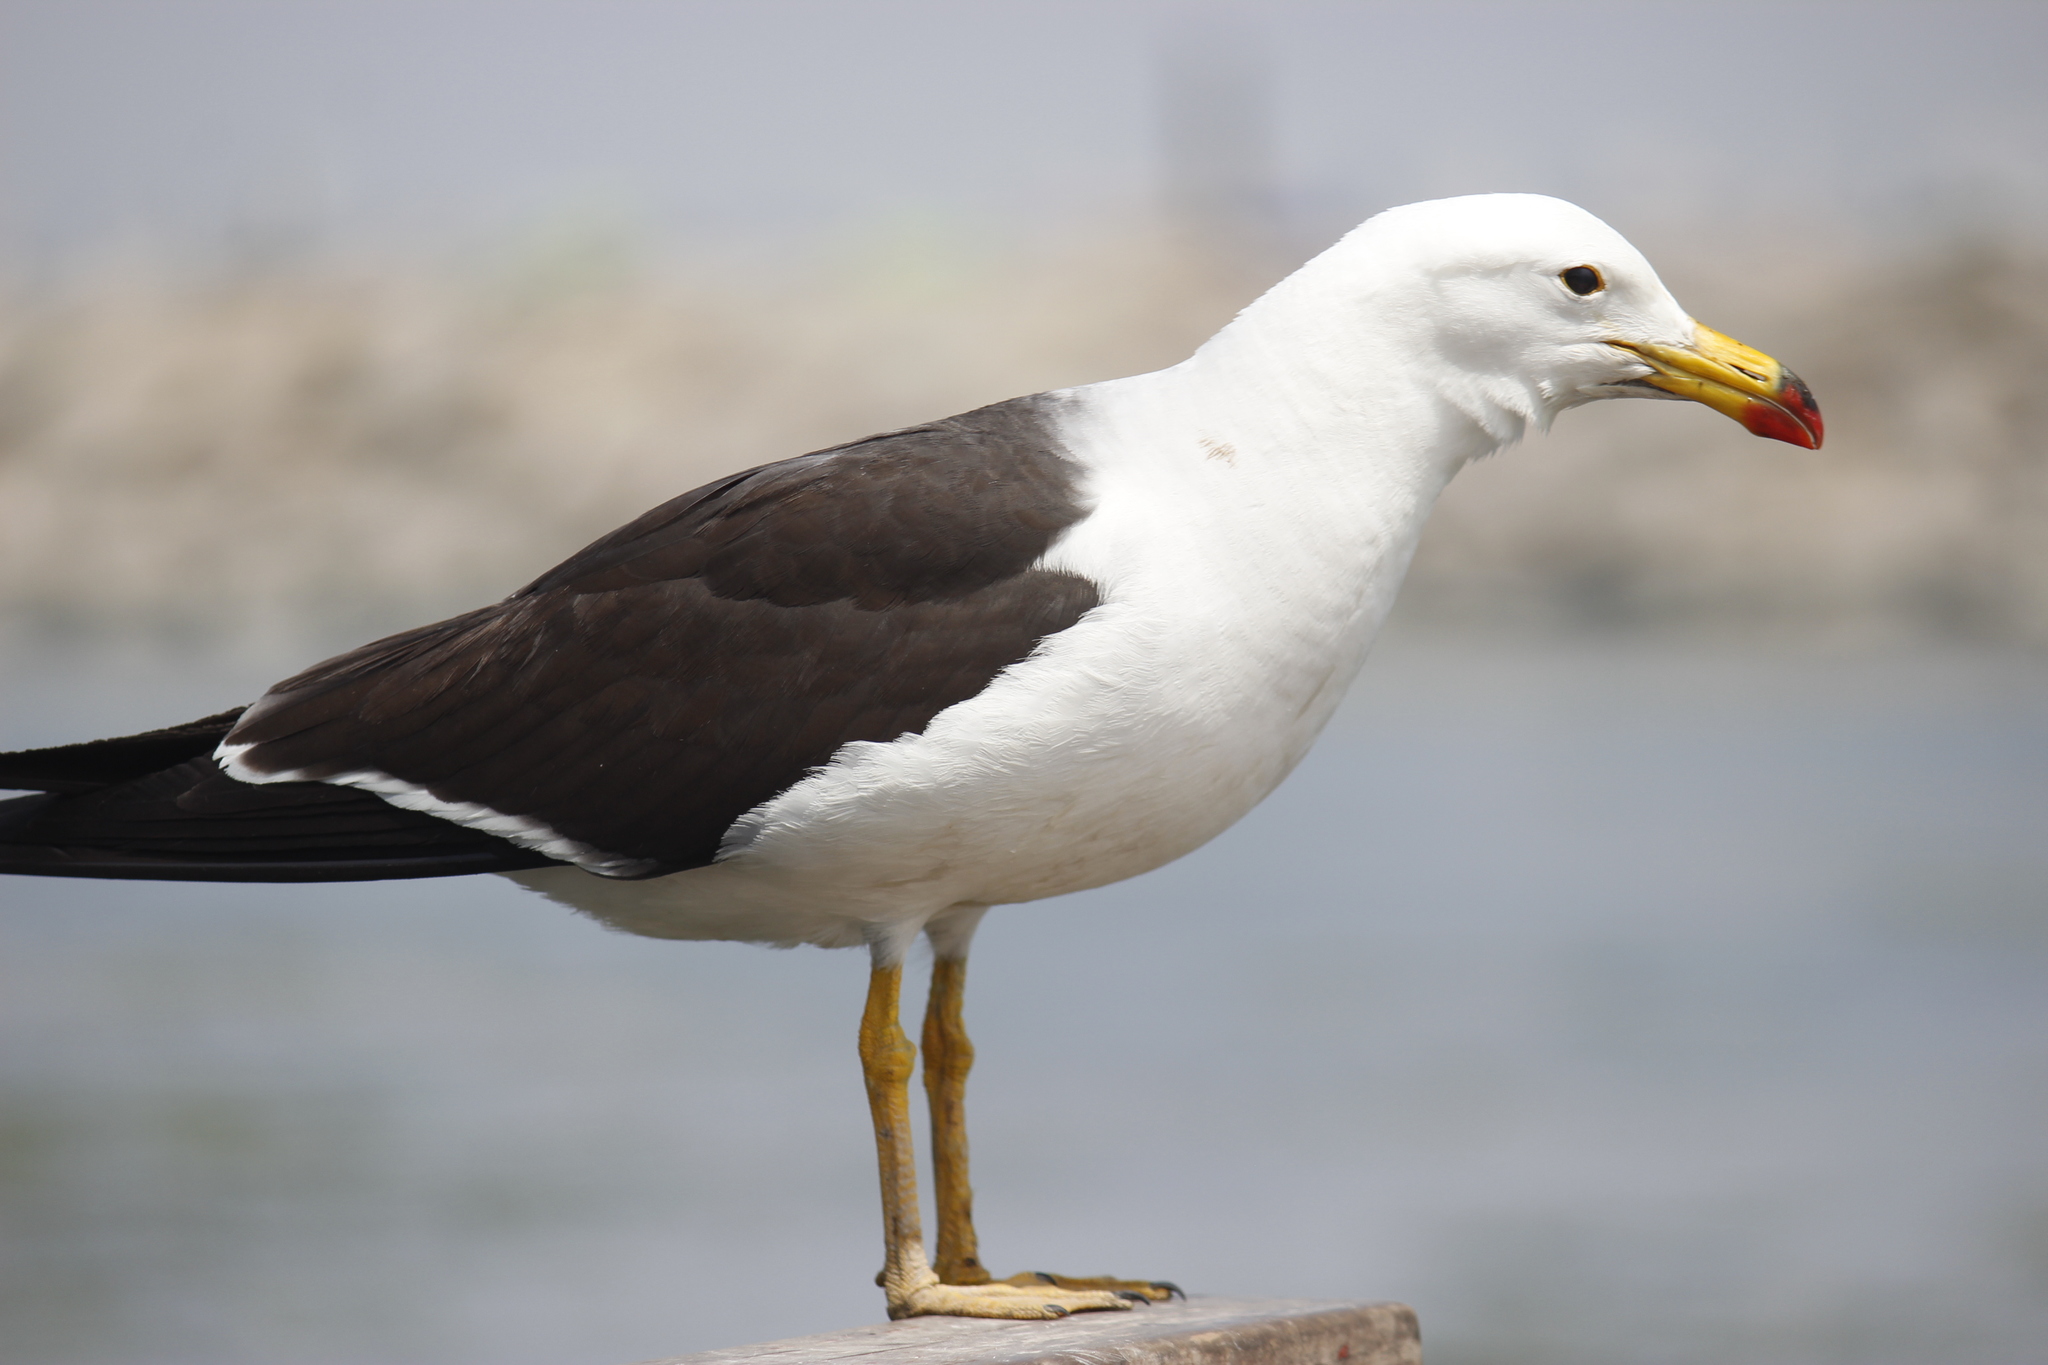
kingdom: Animalia
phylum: Chordata
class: Aves
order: Charadriiformes
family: Laridae
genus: Larus
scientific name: Larus belcheri
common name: Belcher's gull
